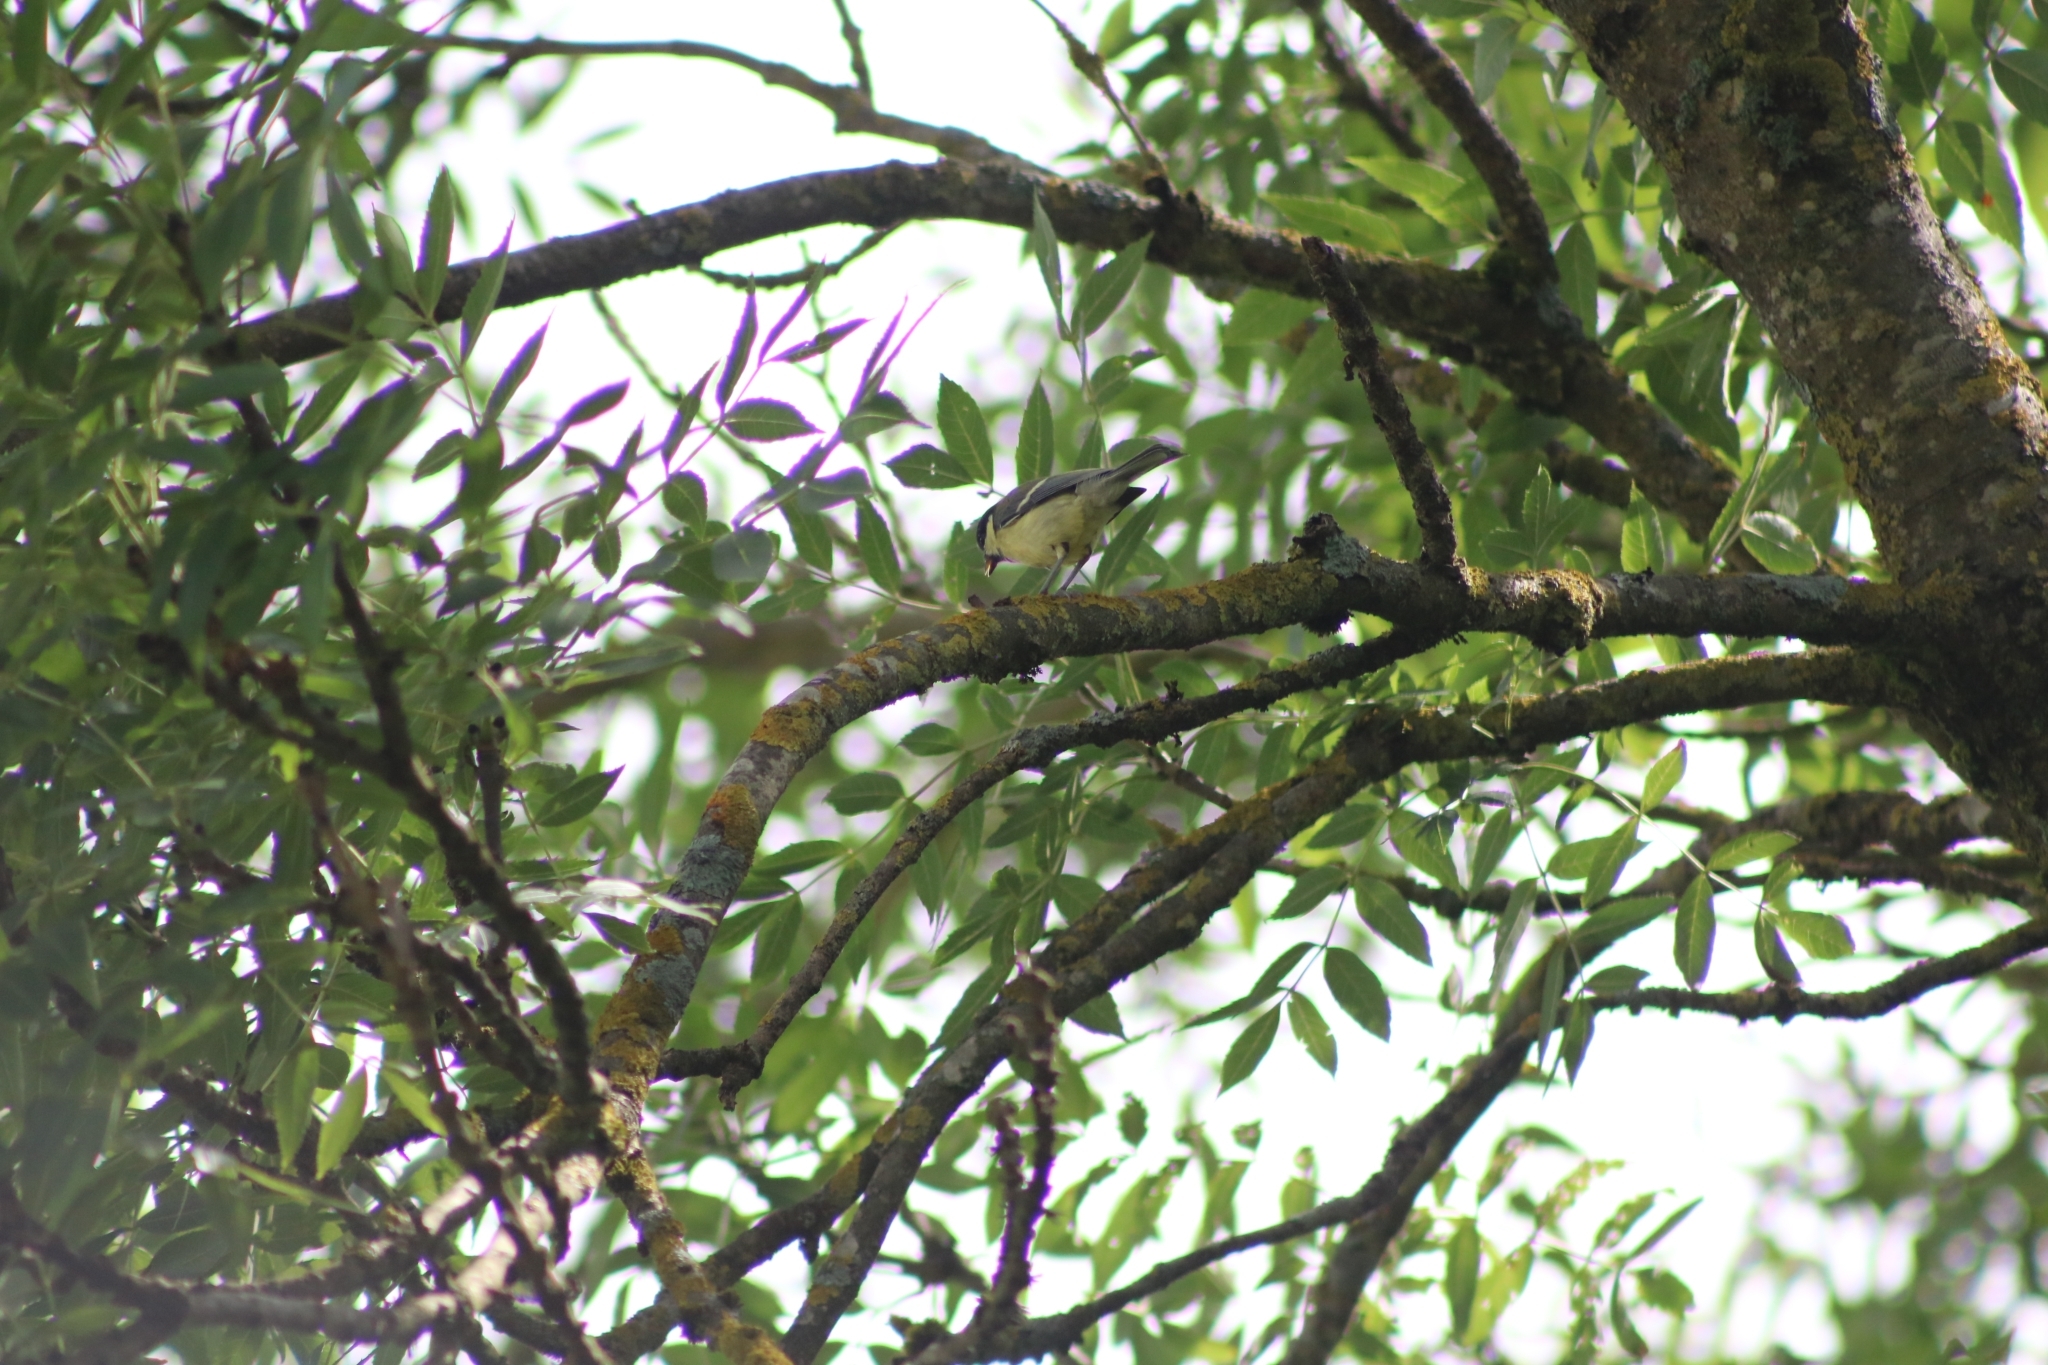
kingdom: Animalia
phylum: Chordata
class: Aves
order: Passeriformes
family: Paridae
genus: Parus
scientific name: Parus major
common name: Great tit
